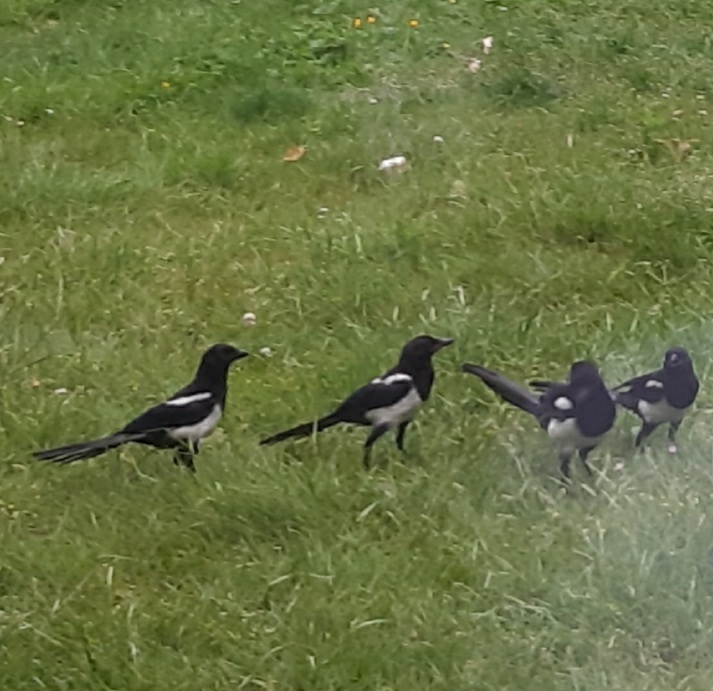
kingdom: Animalia
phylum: Chordata
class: Aves
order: Passeriformes
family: Corvidae
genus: Pica
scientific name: Pica pica
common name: Eurasian magpie
